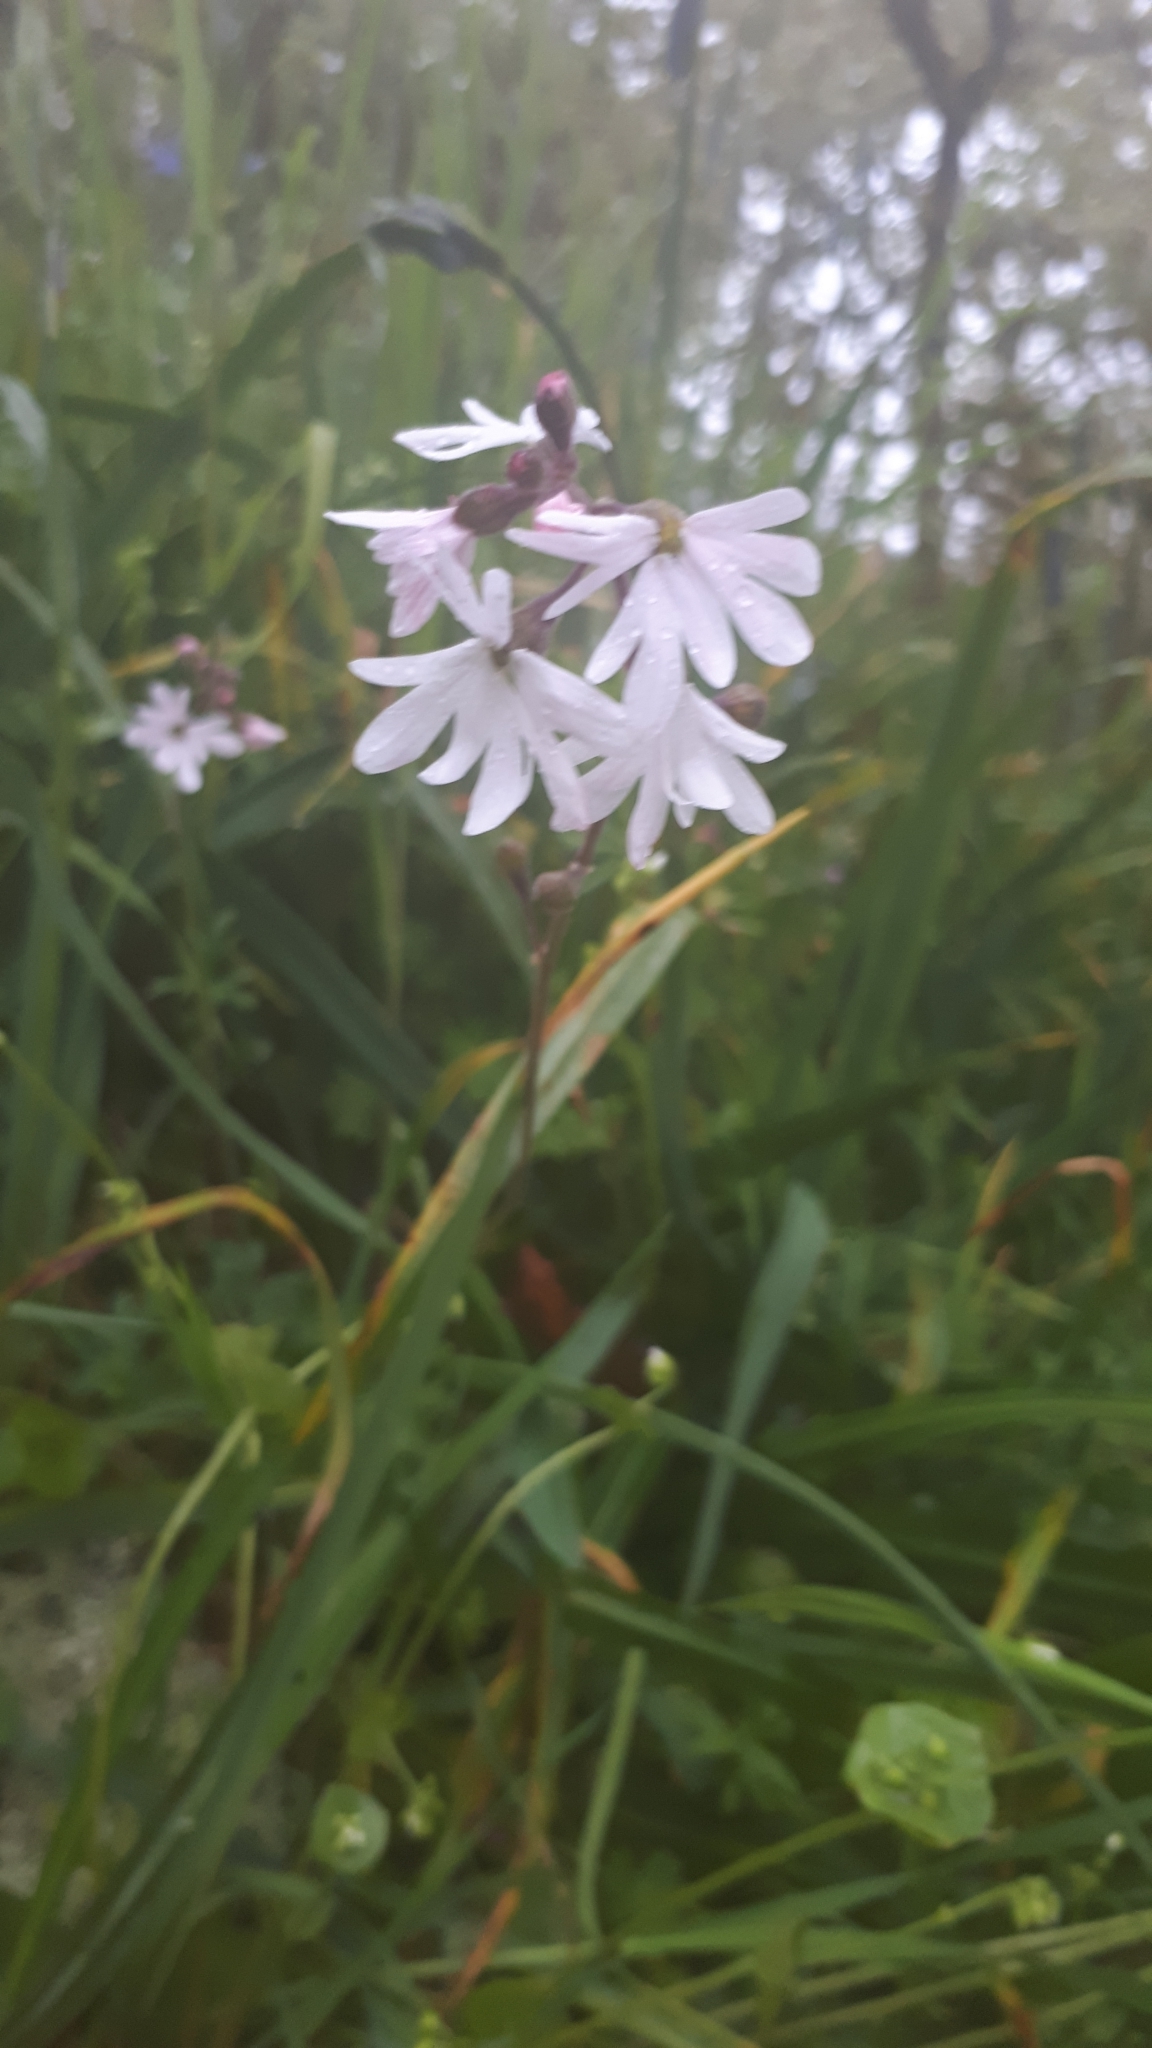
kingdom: Plantae
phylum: Tracheophyta
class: Magnoliopsida
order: Saxifragales
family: Saxifragaceae
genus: Lithophragma
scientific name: Lithophragma parviflorum
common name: Small-flowered fringe-cup
